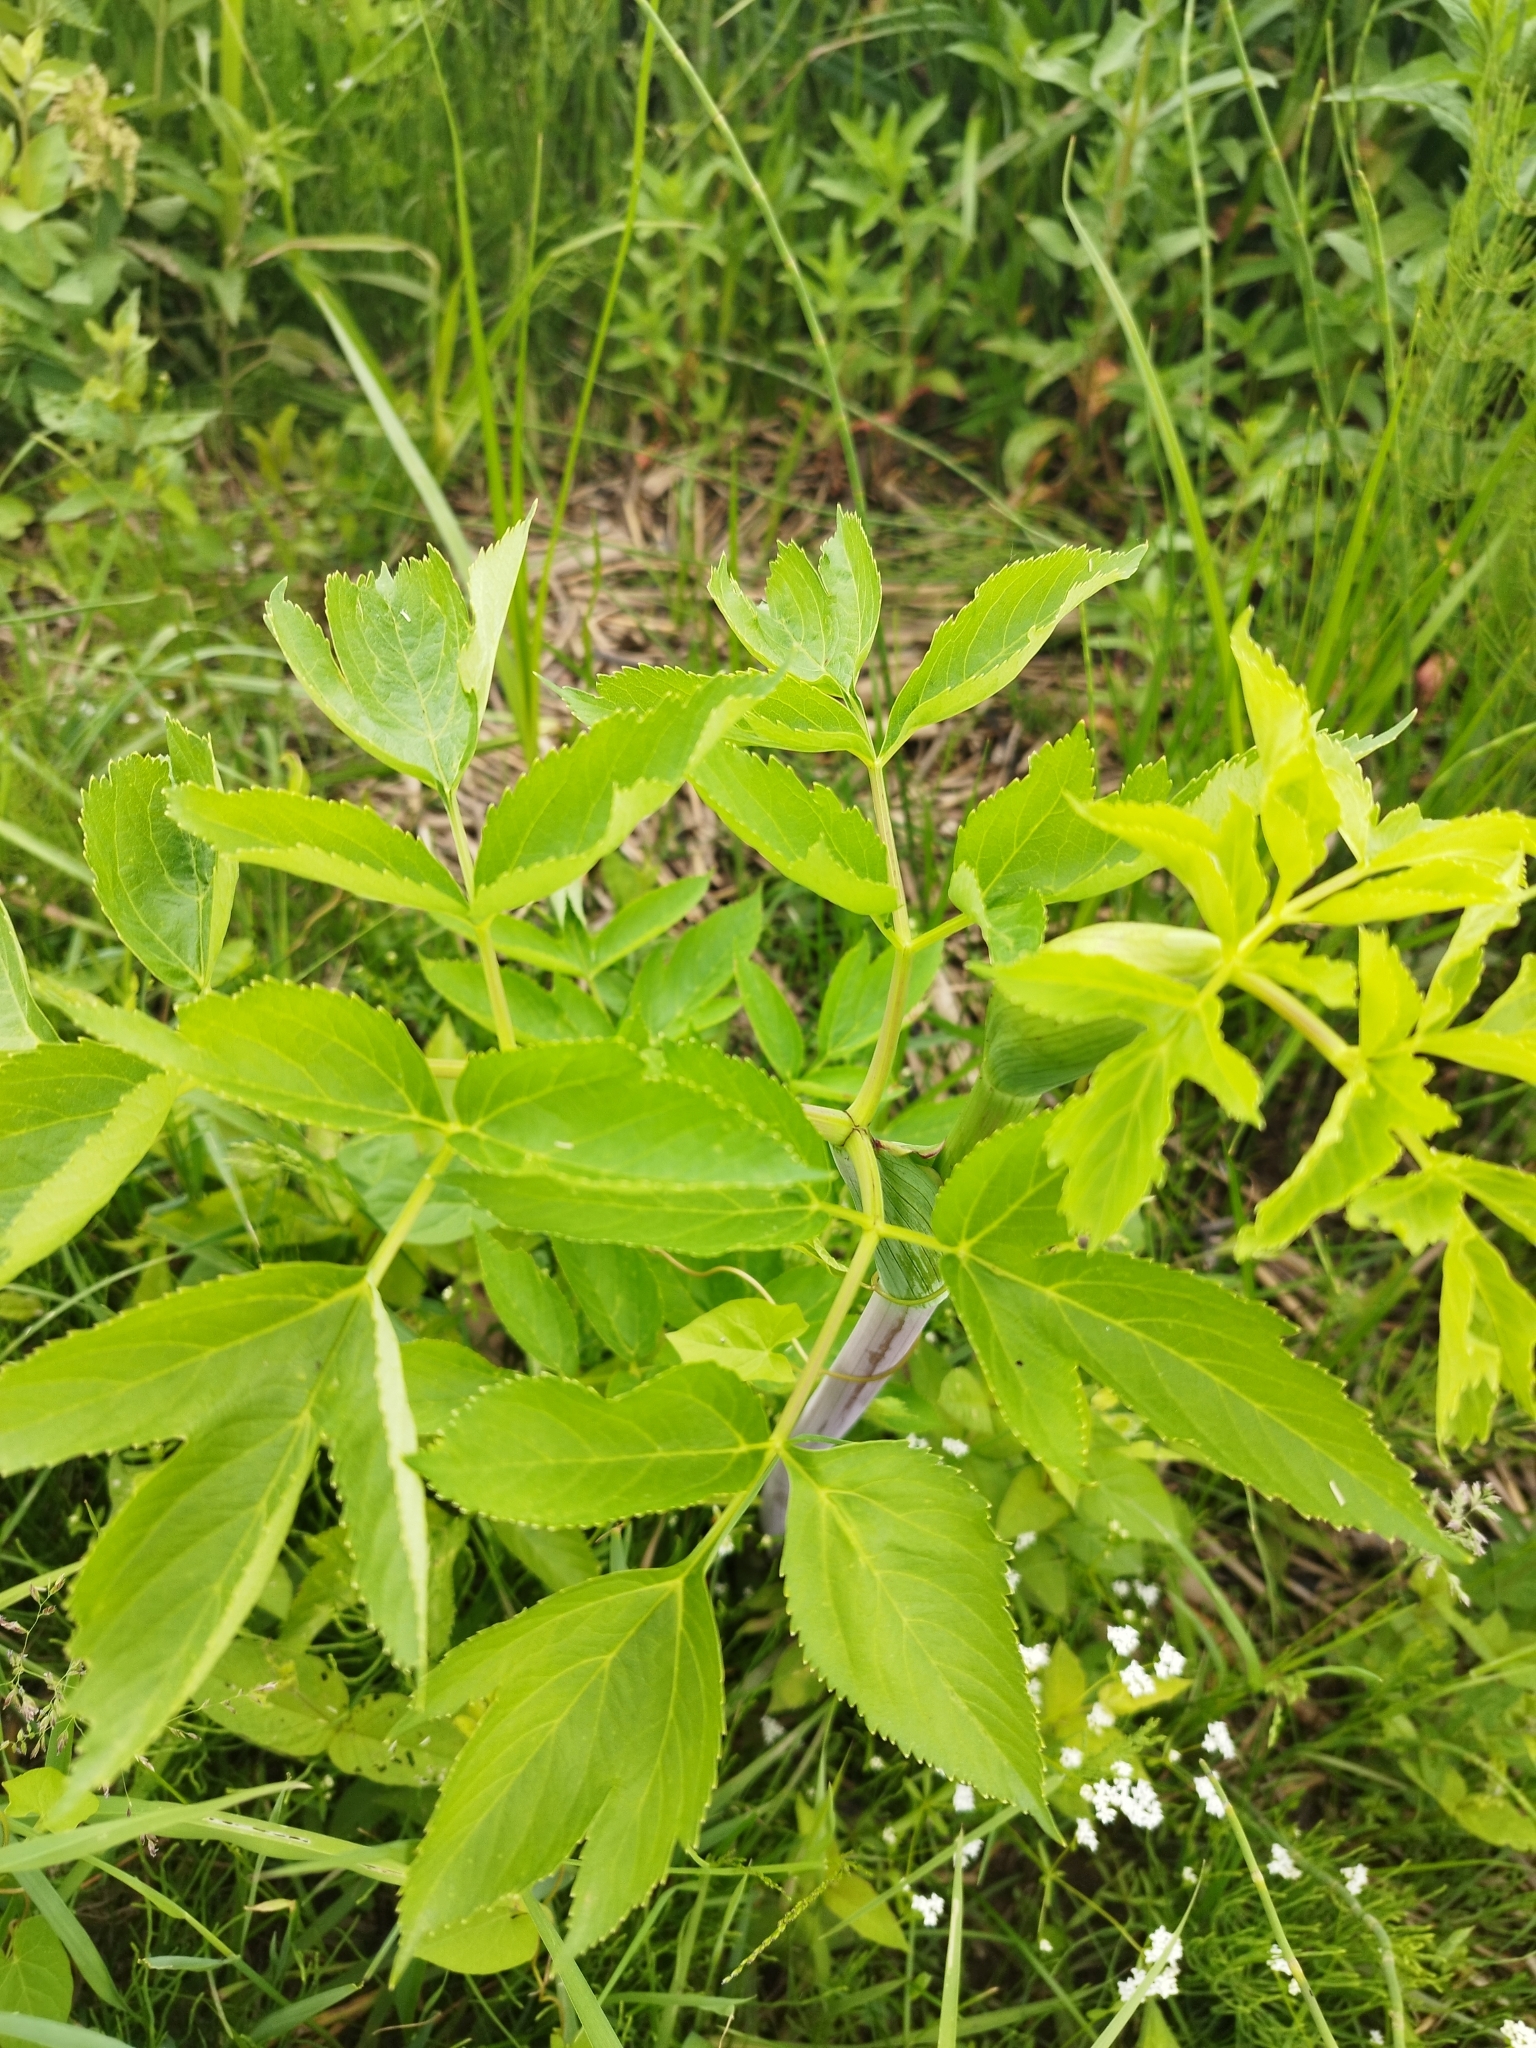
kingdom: Plantae
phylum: Tracheophyta
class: Magnoliopsida
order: Apiales
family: Apiaceae
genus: Angelica
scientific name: Angelica archangelica
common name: Garden angelica
